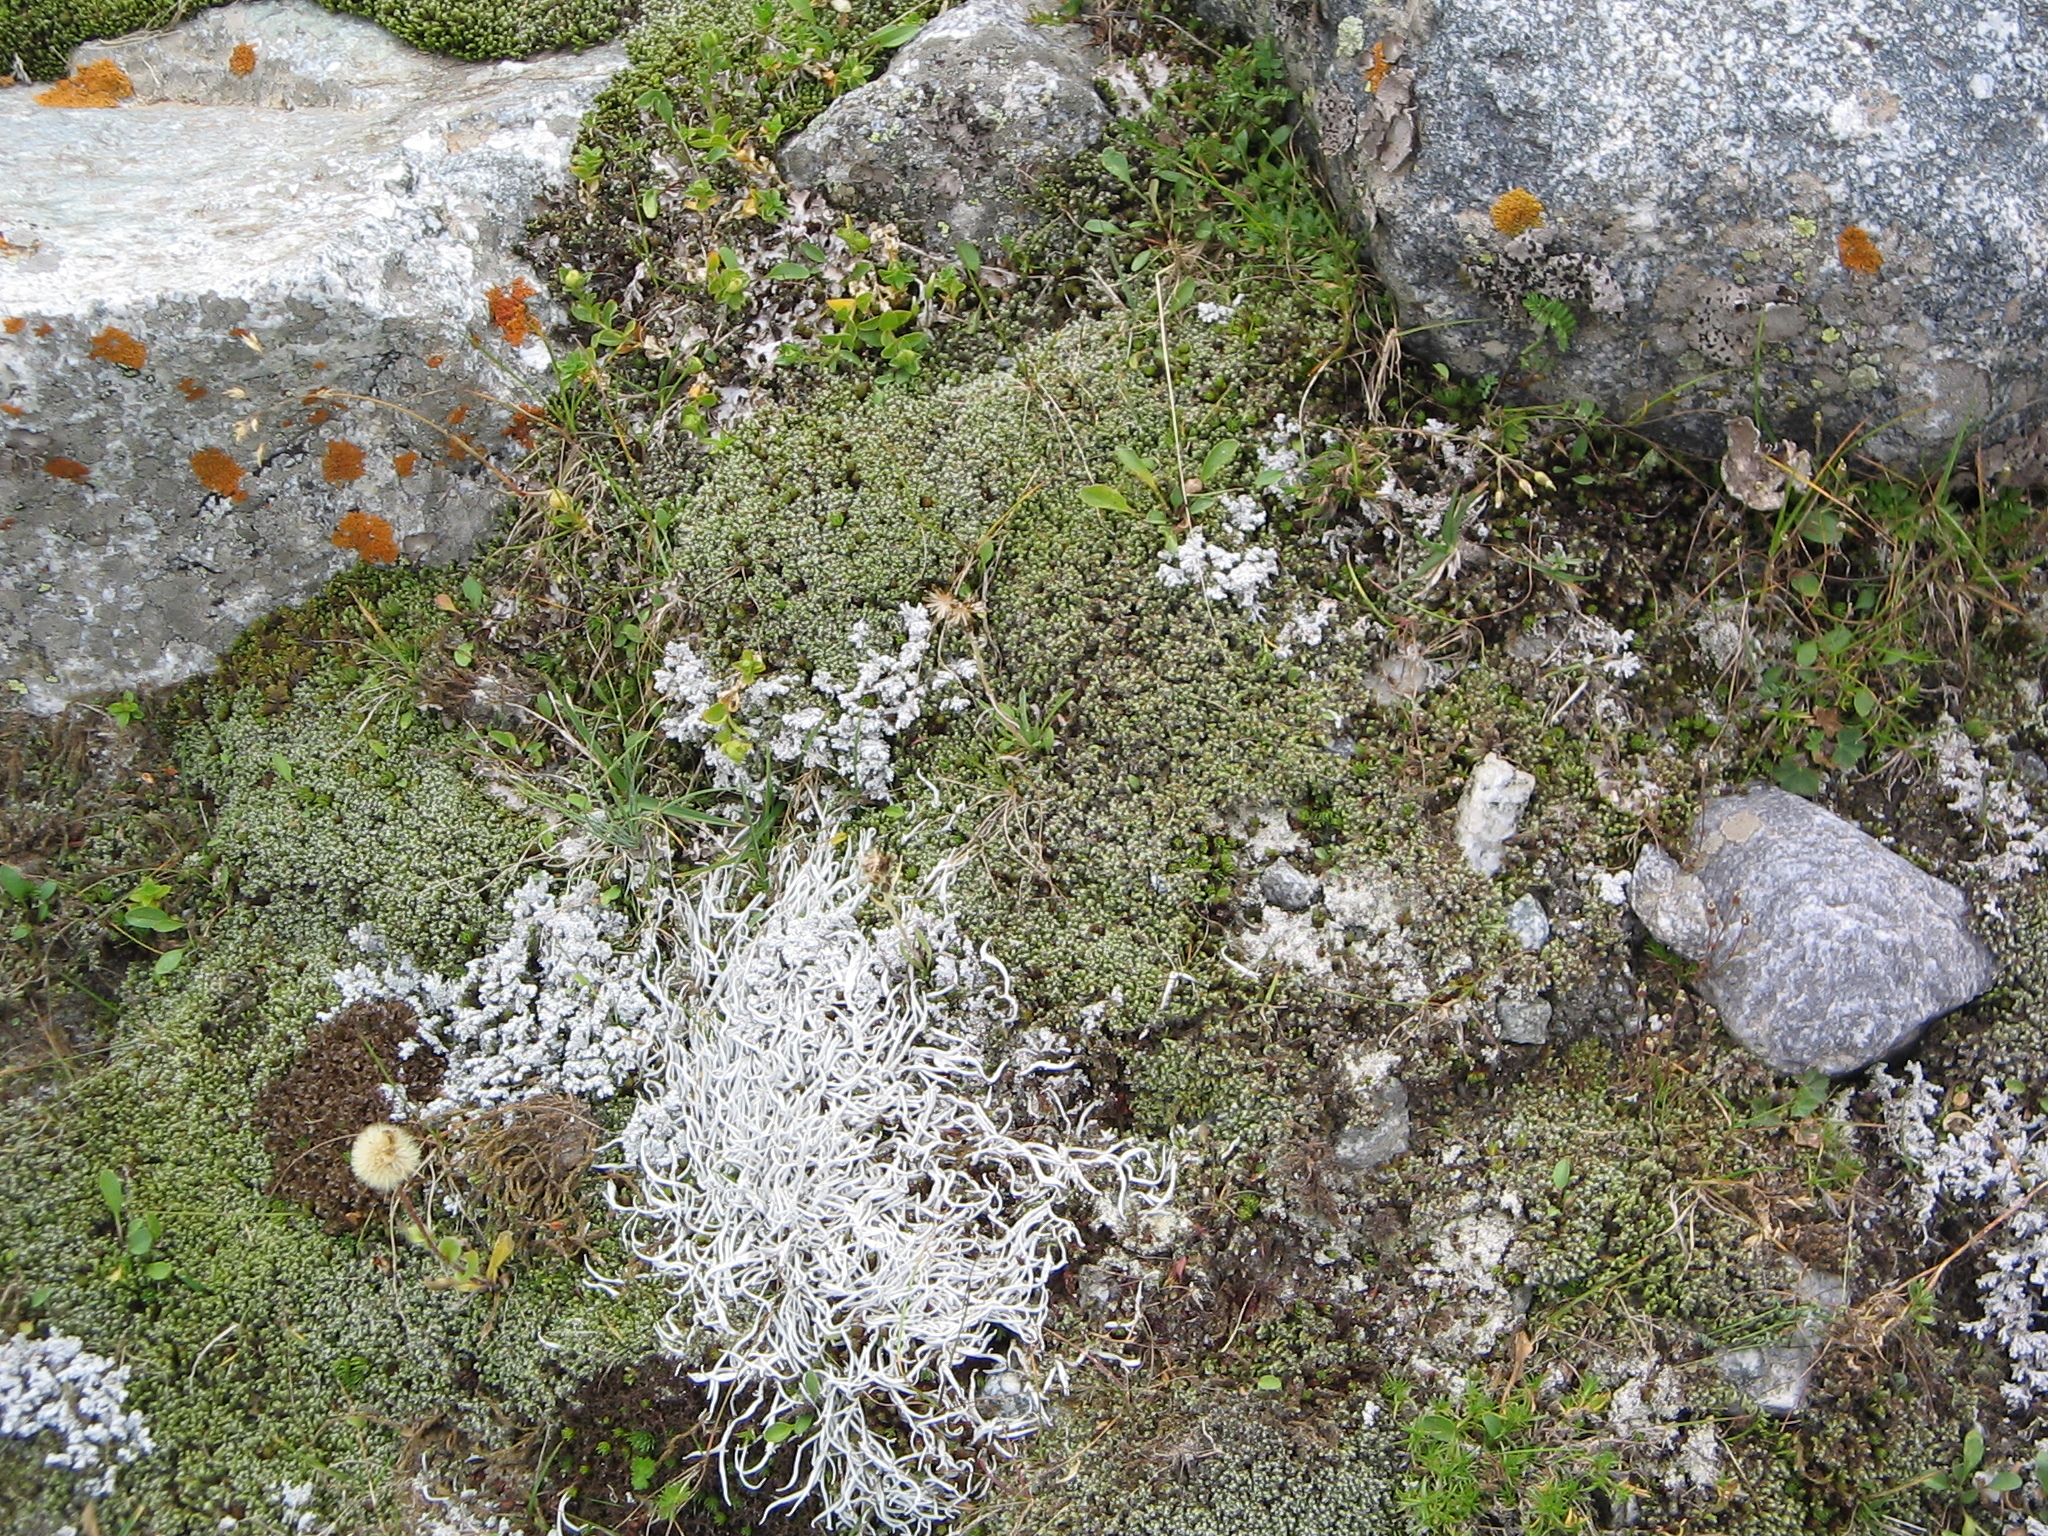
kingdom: Fungi
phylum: Ascomycota
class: Lecanoromycetes
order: Pertusariales
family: Icmadophilaceae
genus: Thamnolia
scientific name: Thamnolia vermicularis
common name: Whiteworm lichen
